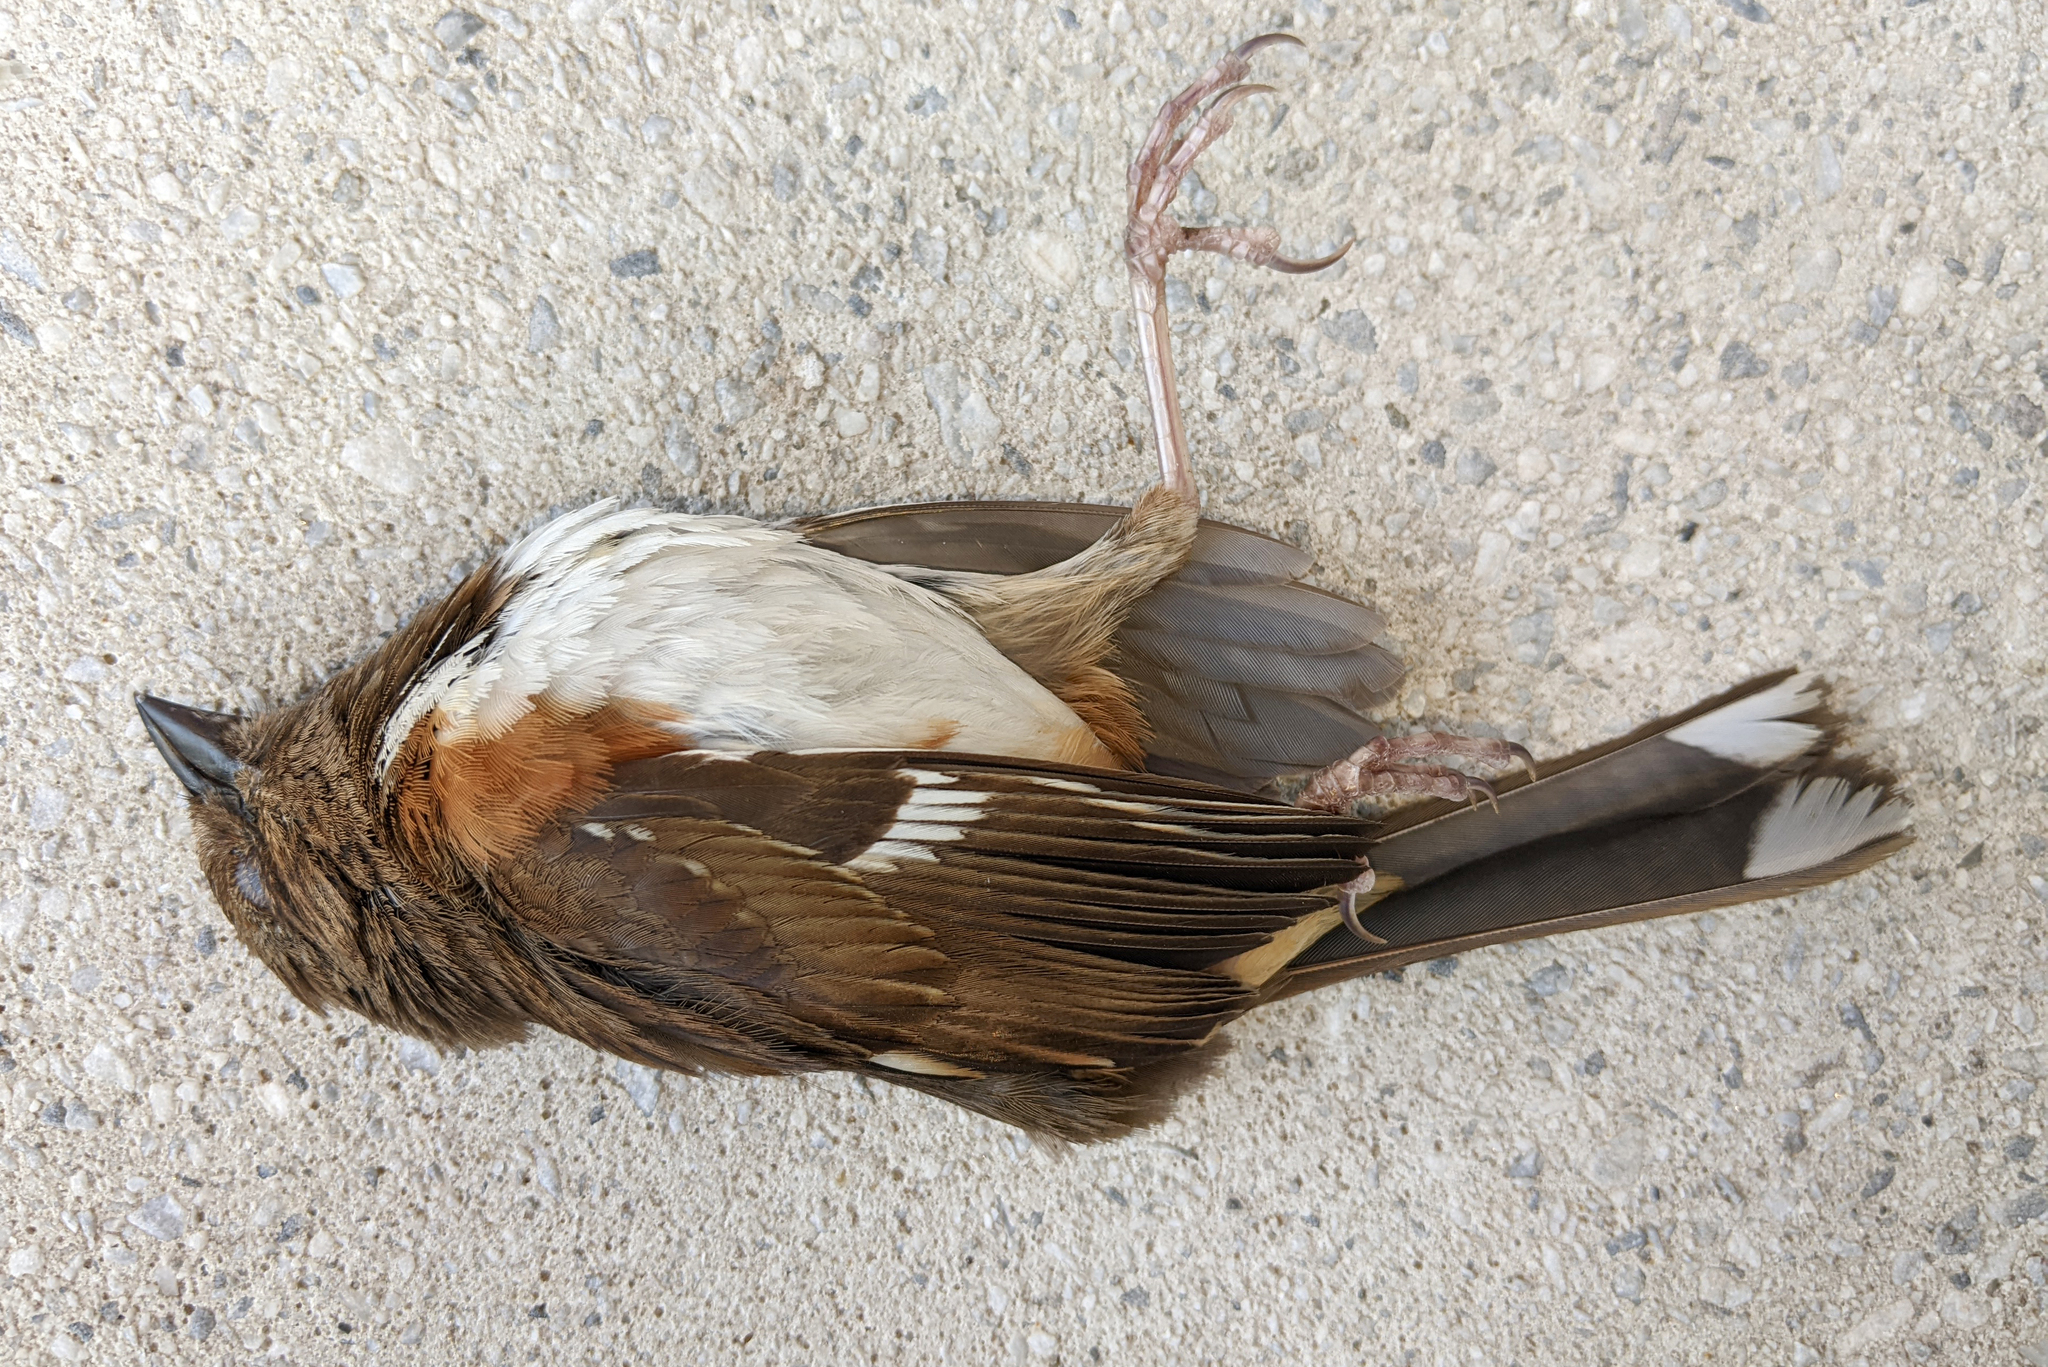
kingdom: Animalia
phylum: Chordata
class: Aves
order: Passeriformes
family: Passerellidae
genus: Pipilo
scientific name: Pipilo erythrophthalmus
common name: Eastern towhee
